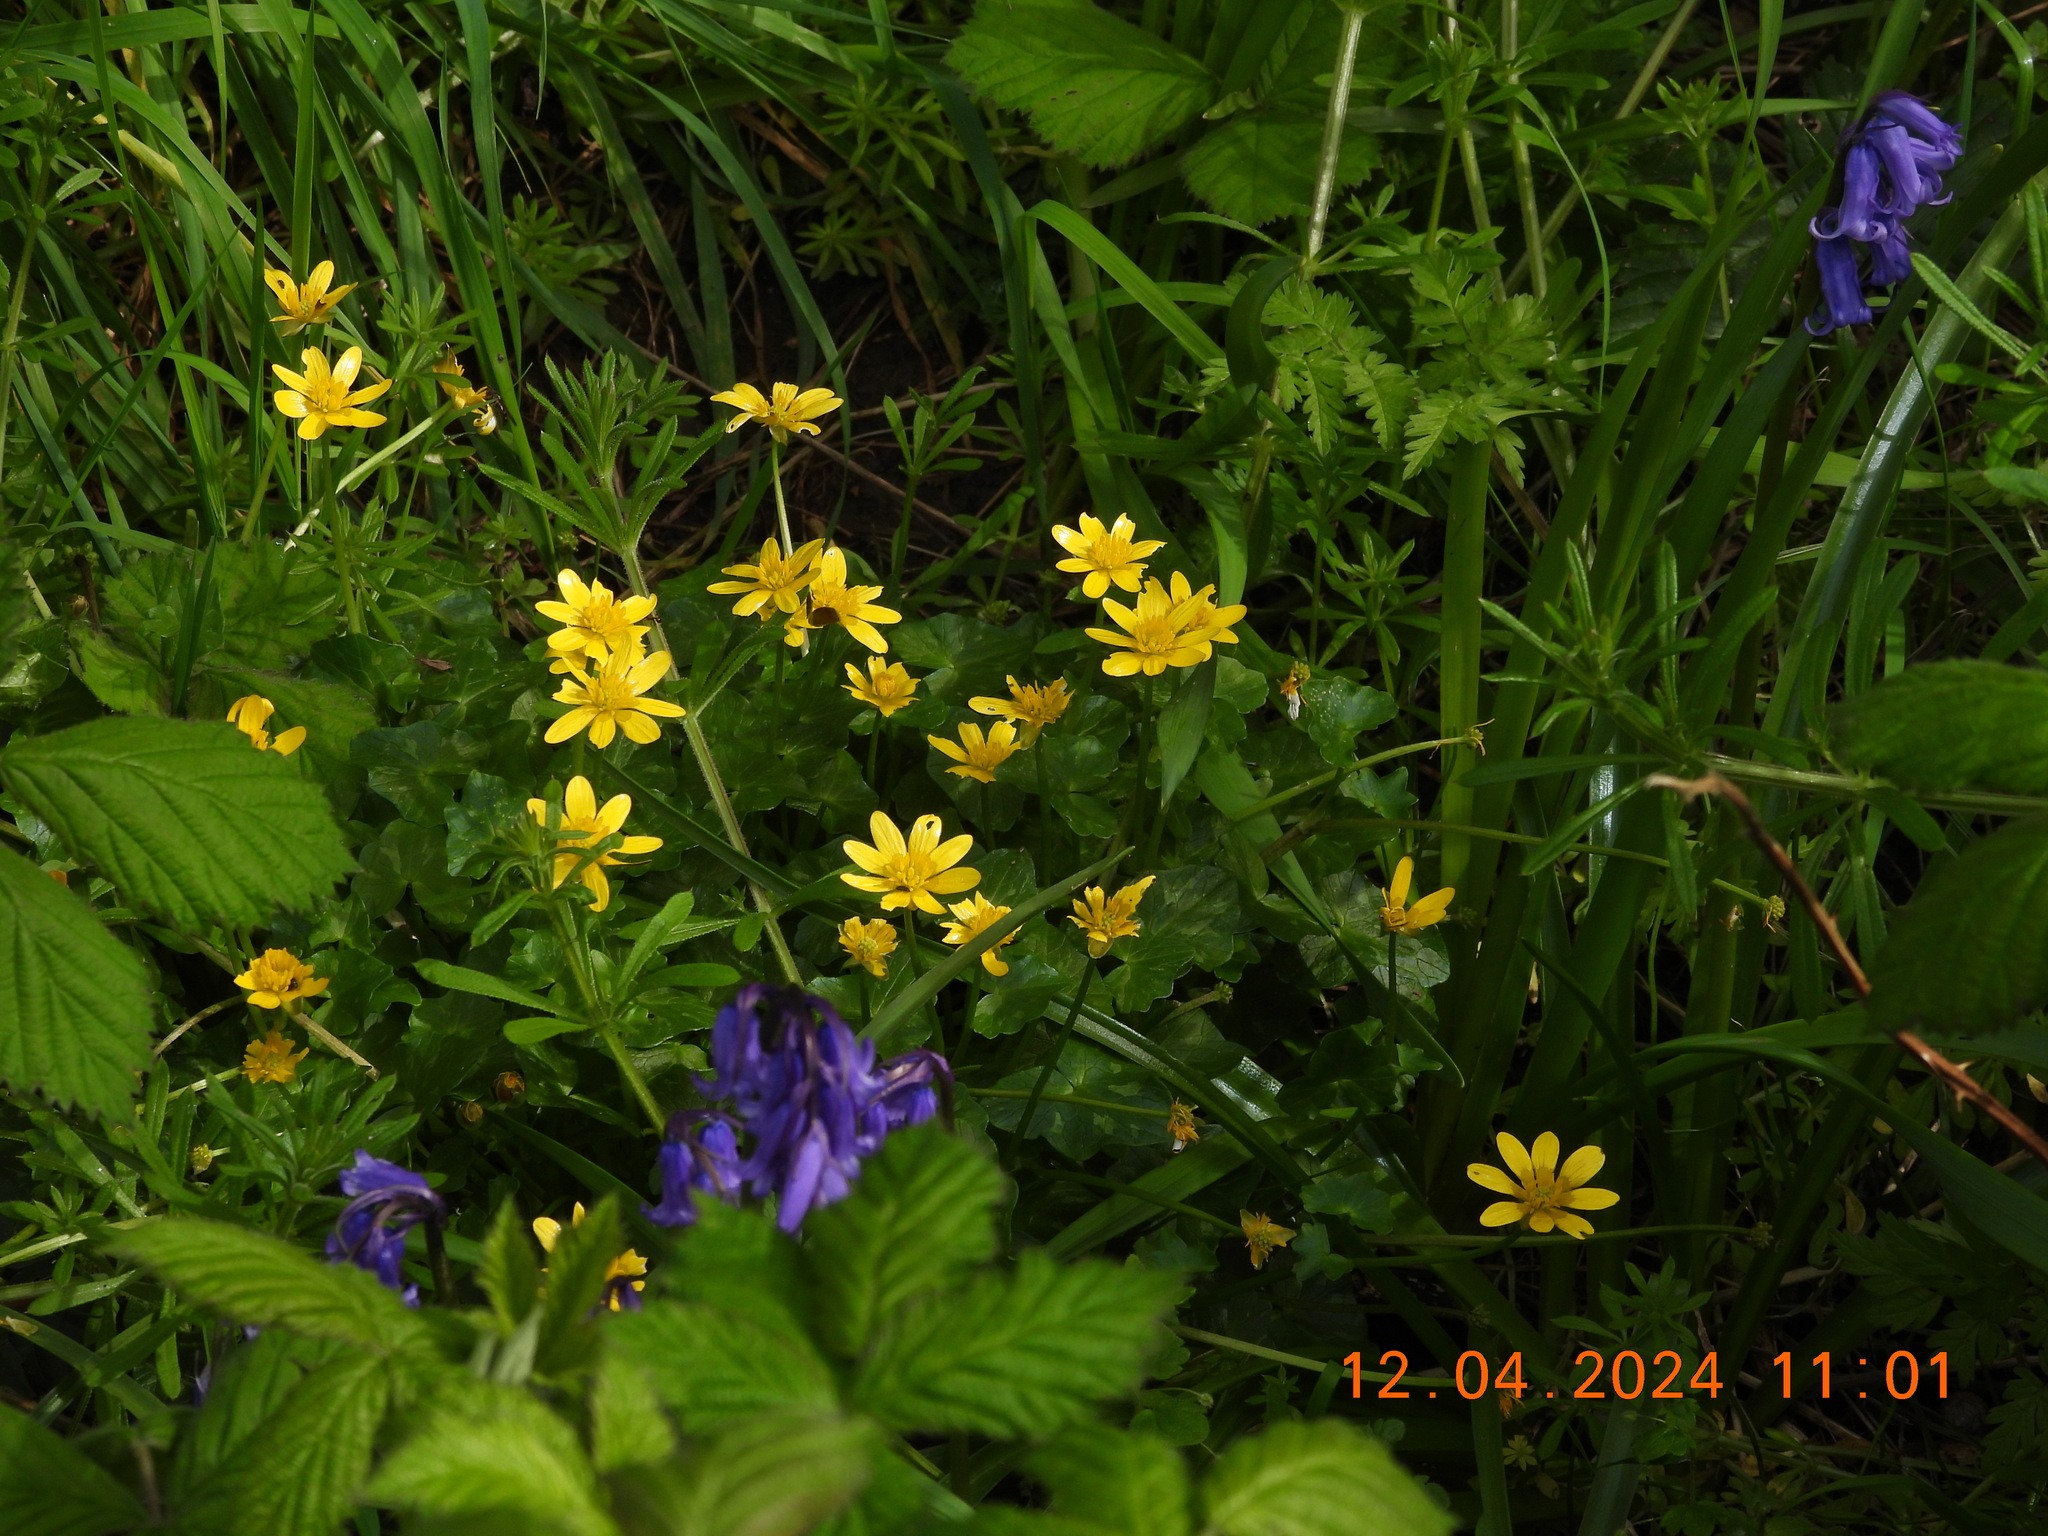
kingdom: Plantae
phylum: Tracheophyta
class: Magnoliopsida
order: Ranunculales
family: Ranunculaceae
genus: Ficaria
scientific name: Ficaria verna
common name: Lesser celandine
